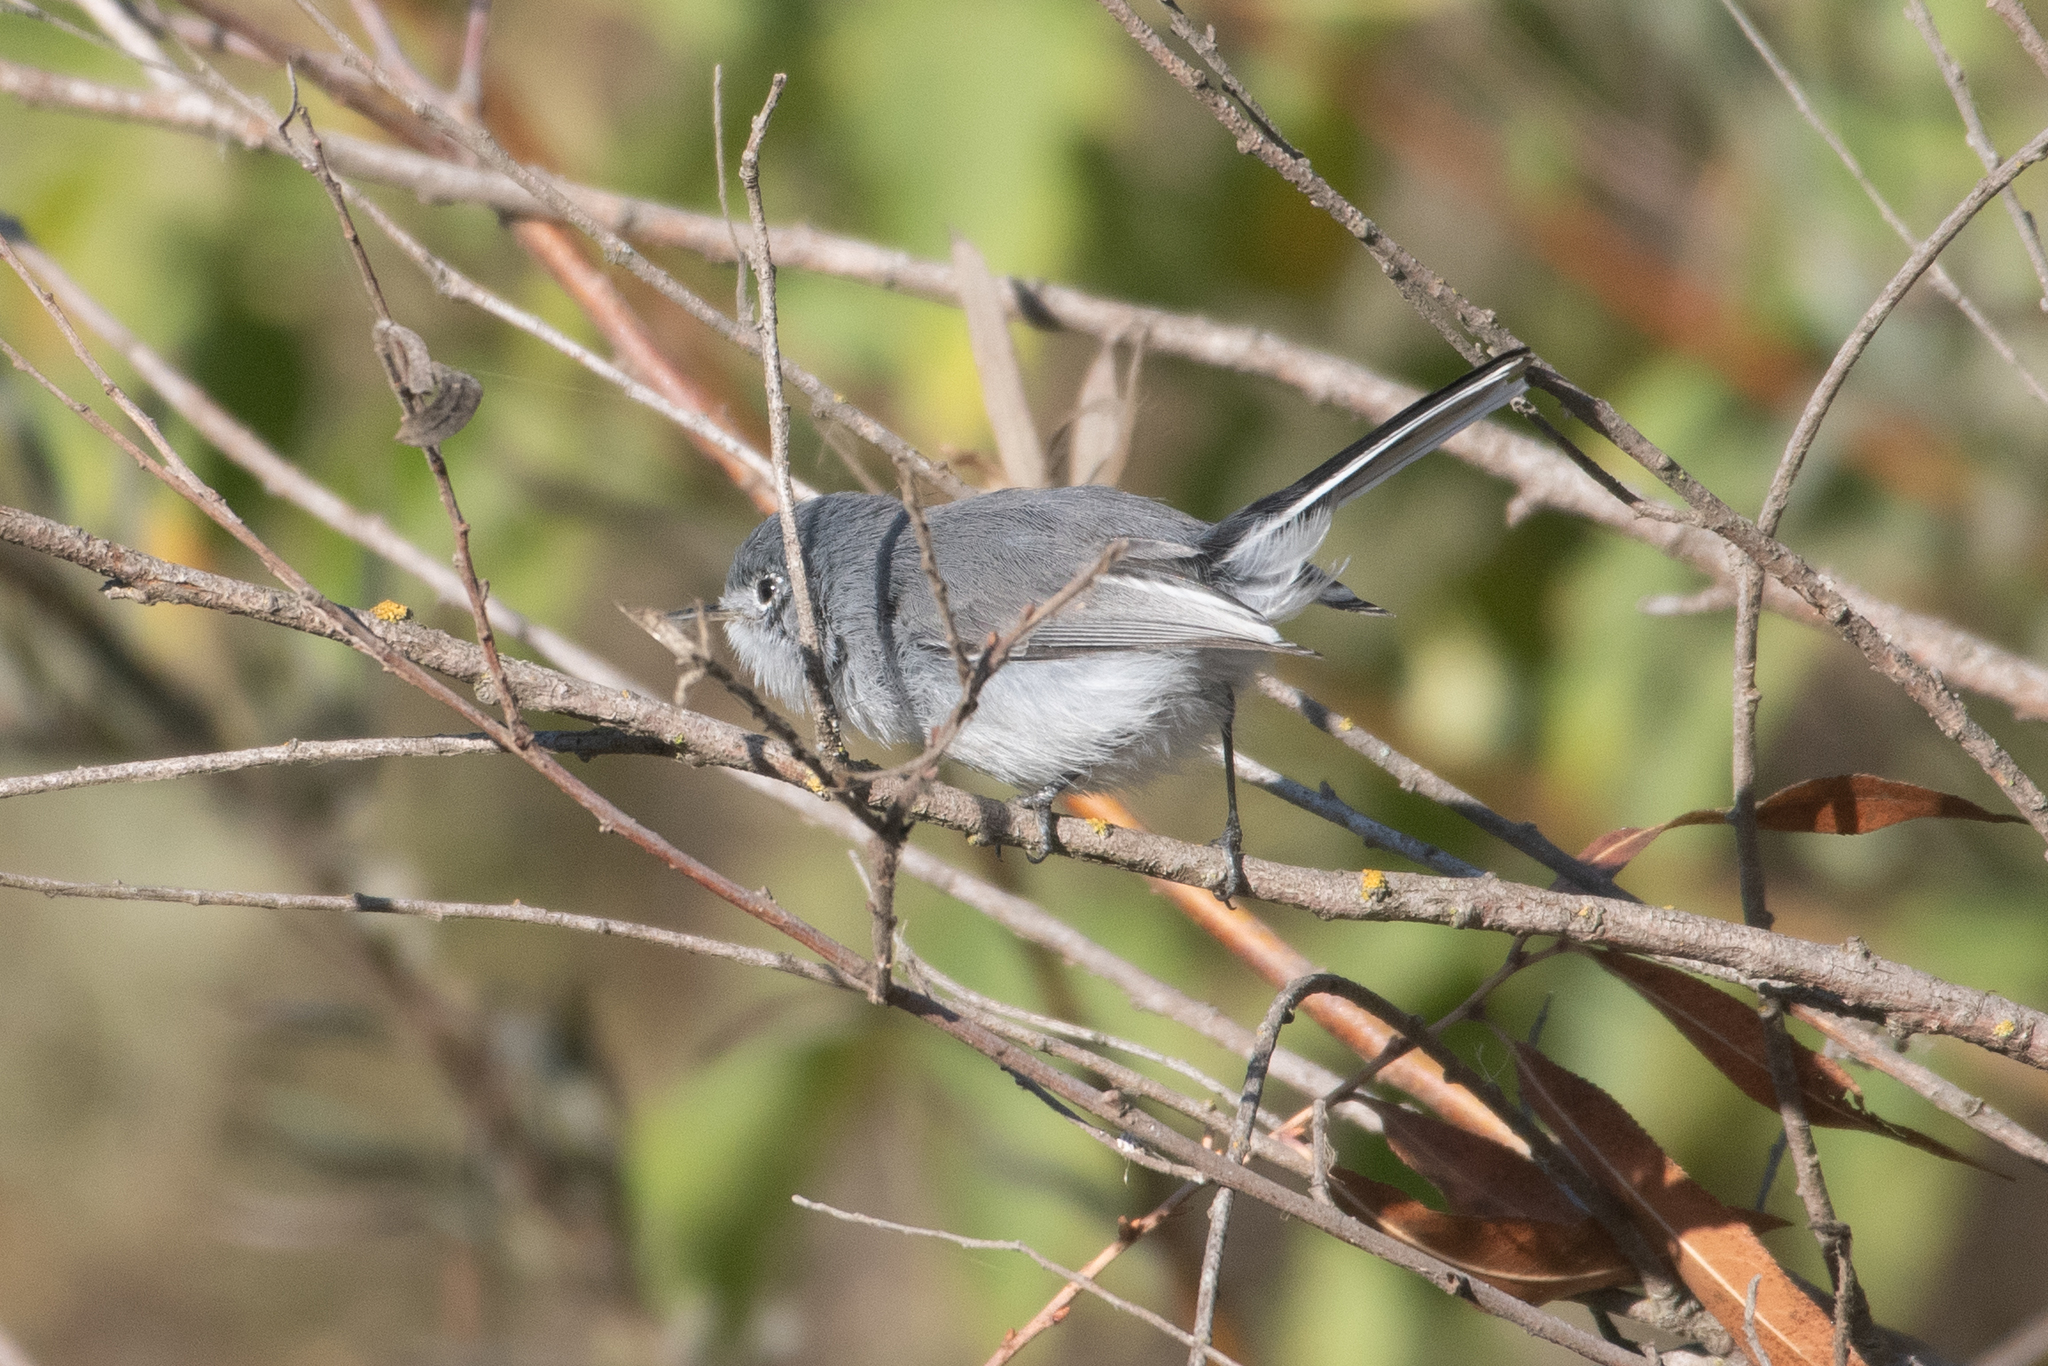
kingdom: Animalia
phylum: Chordata
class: Aves
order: Passeriformes
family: Polioptilidae
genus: Polioptila
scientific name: Polioptila caerulea
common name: Blue-gray gnatcatcher
